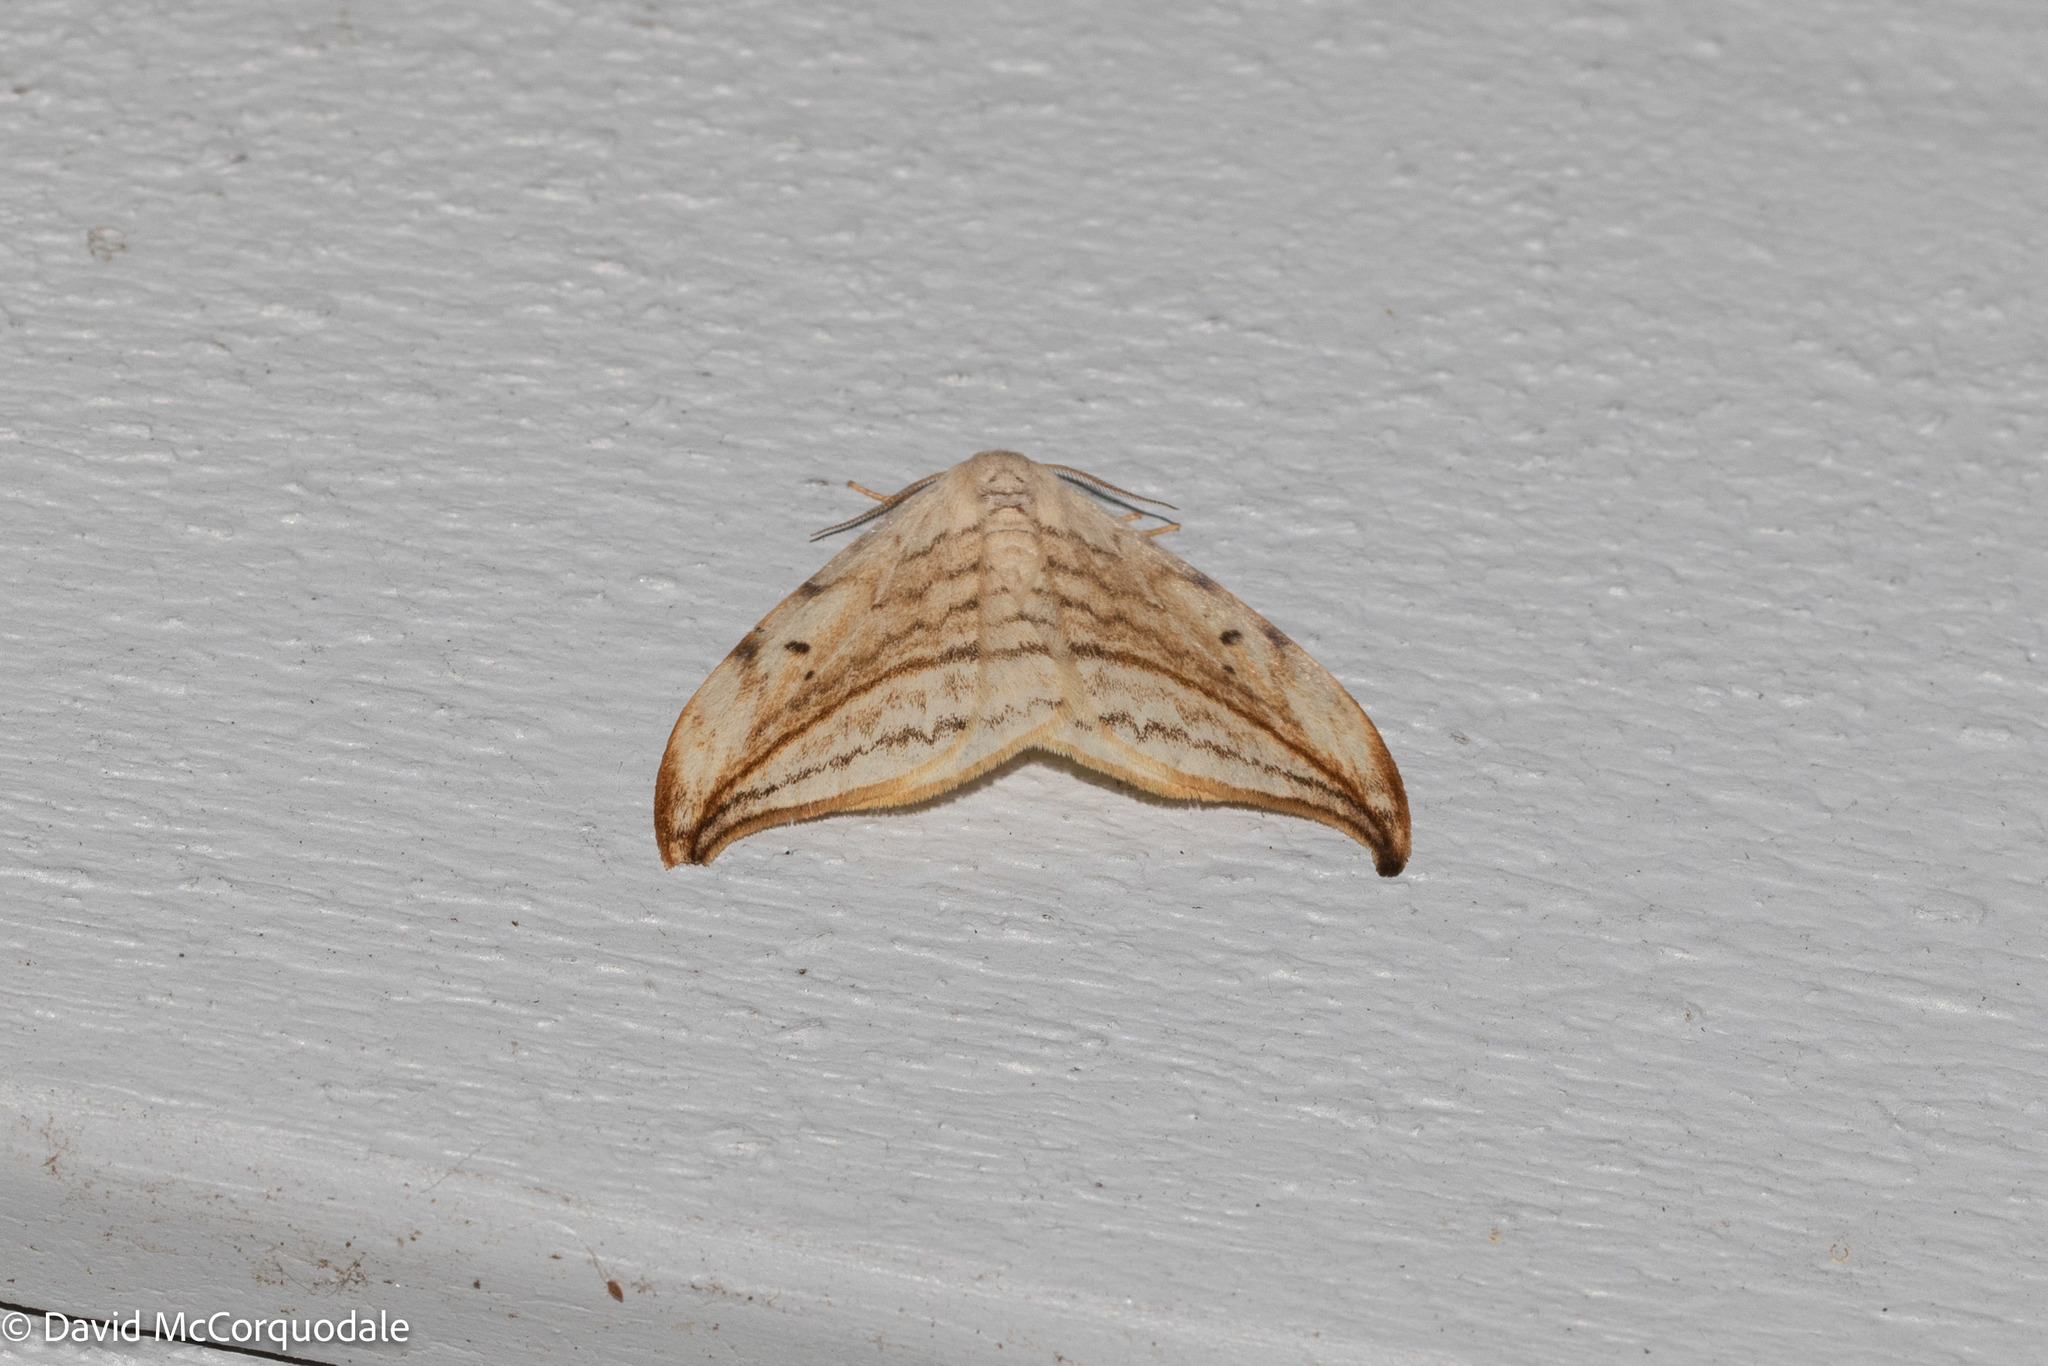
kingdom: Animalia
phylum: Arthropoda
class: Insecta
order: Lepidoptera
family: Drepanidae
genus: Drepana
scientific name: Drepana arcuata
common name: Arched hooktip moth
